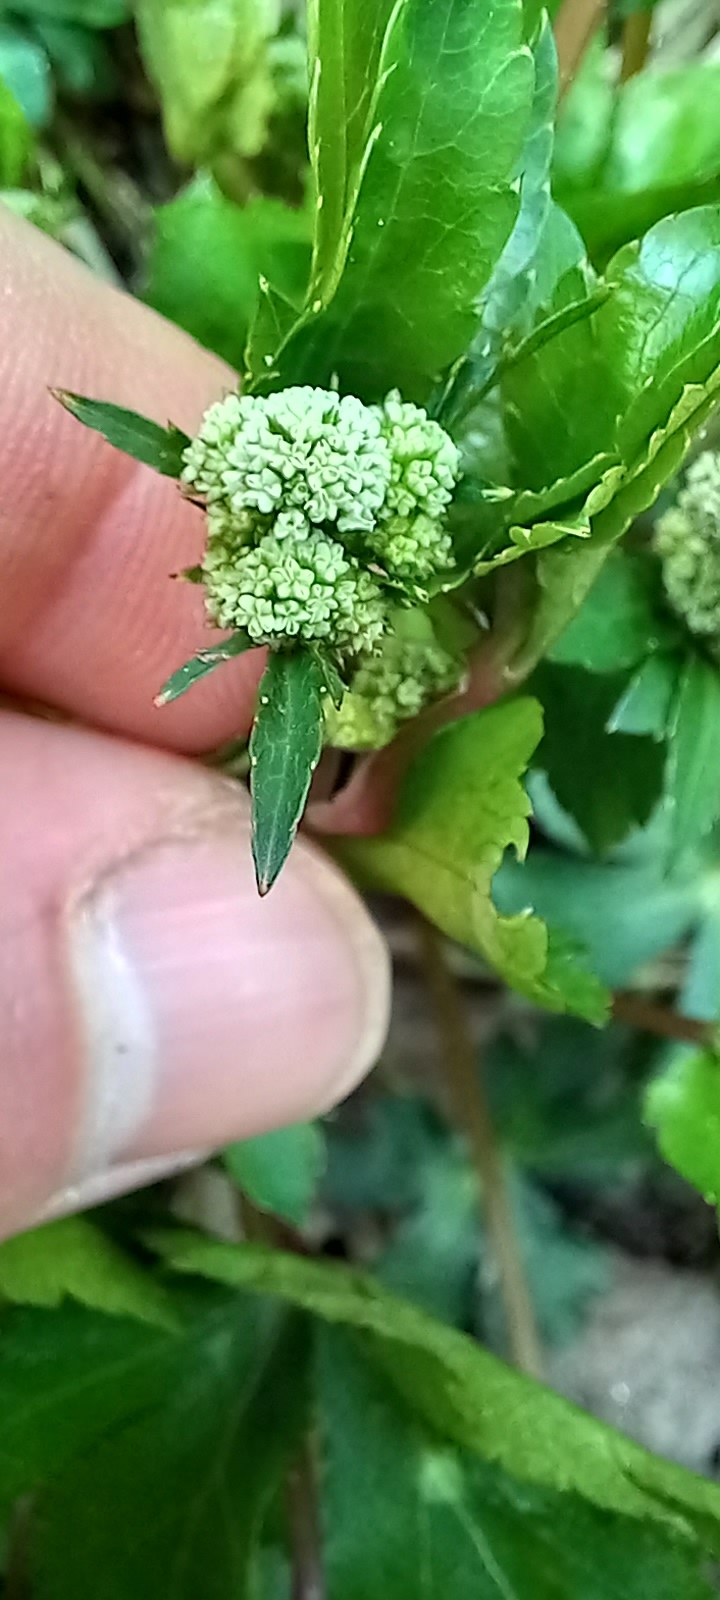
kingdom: Plantae
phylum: Tracheophyta
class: Magnoliopsida
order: Apiales
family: Apiaceae
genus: Sanicula
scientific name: Sanicula europaea
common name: Sanicle
